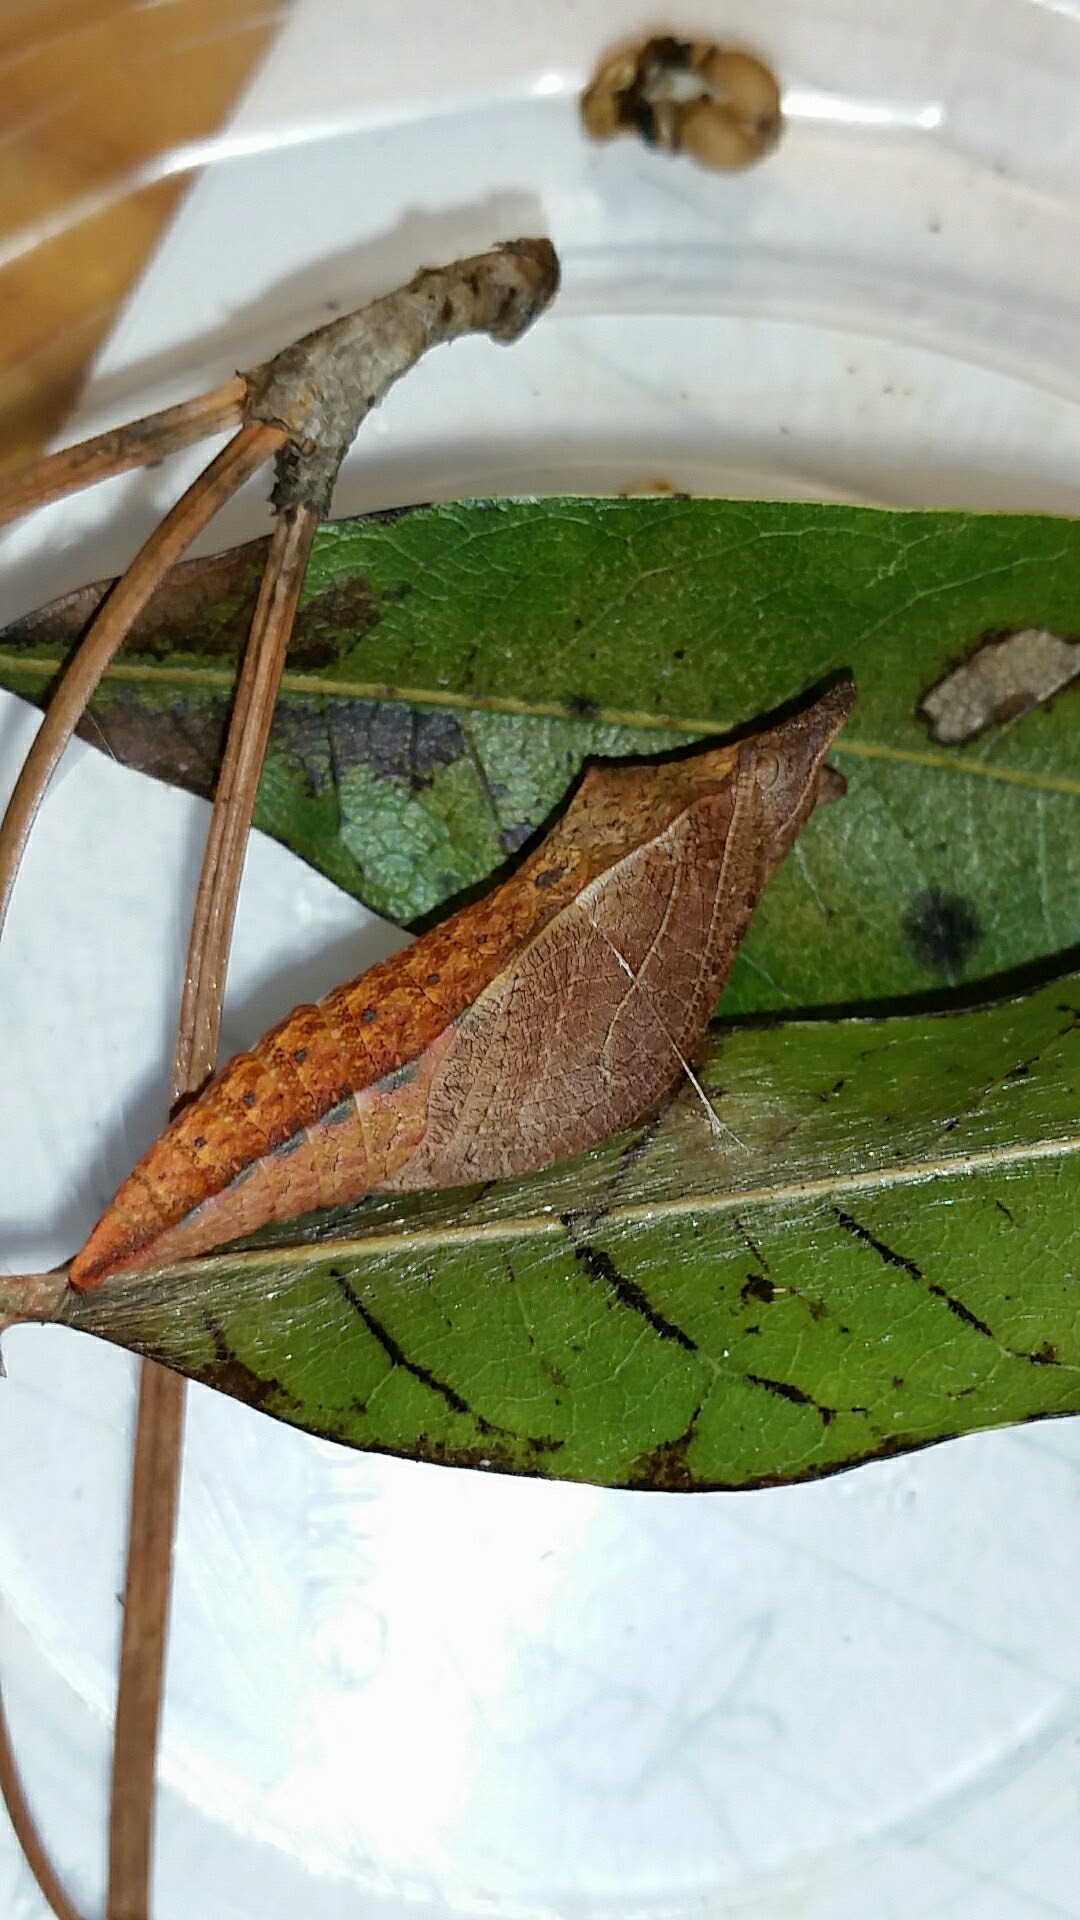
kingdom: Animalia
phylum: Arthropoda
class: Insecta
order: Lepidoptera
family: Papilionidae
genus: Papilio
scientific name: Papilio troilus
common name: Spicebush swallowtail
